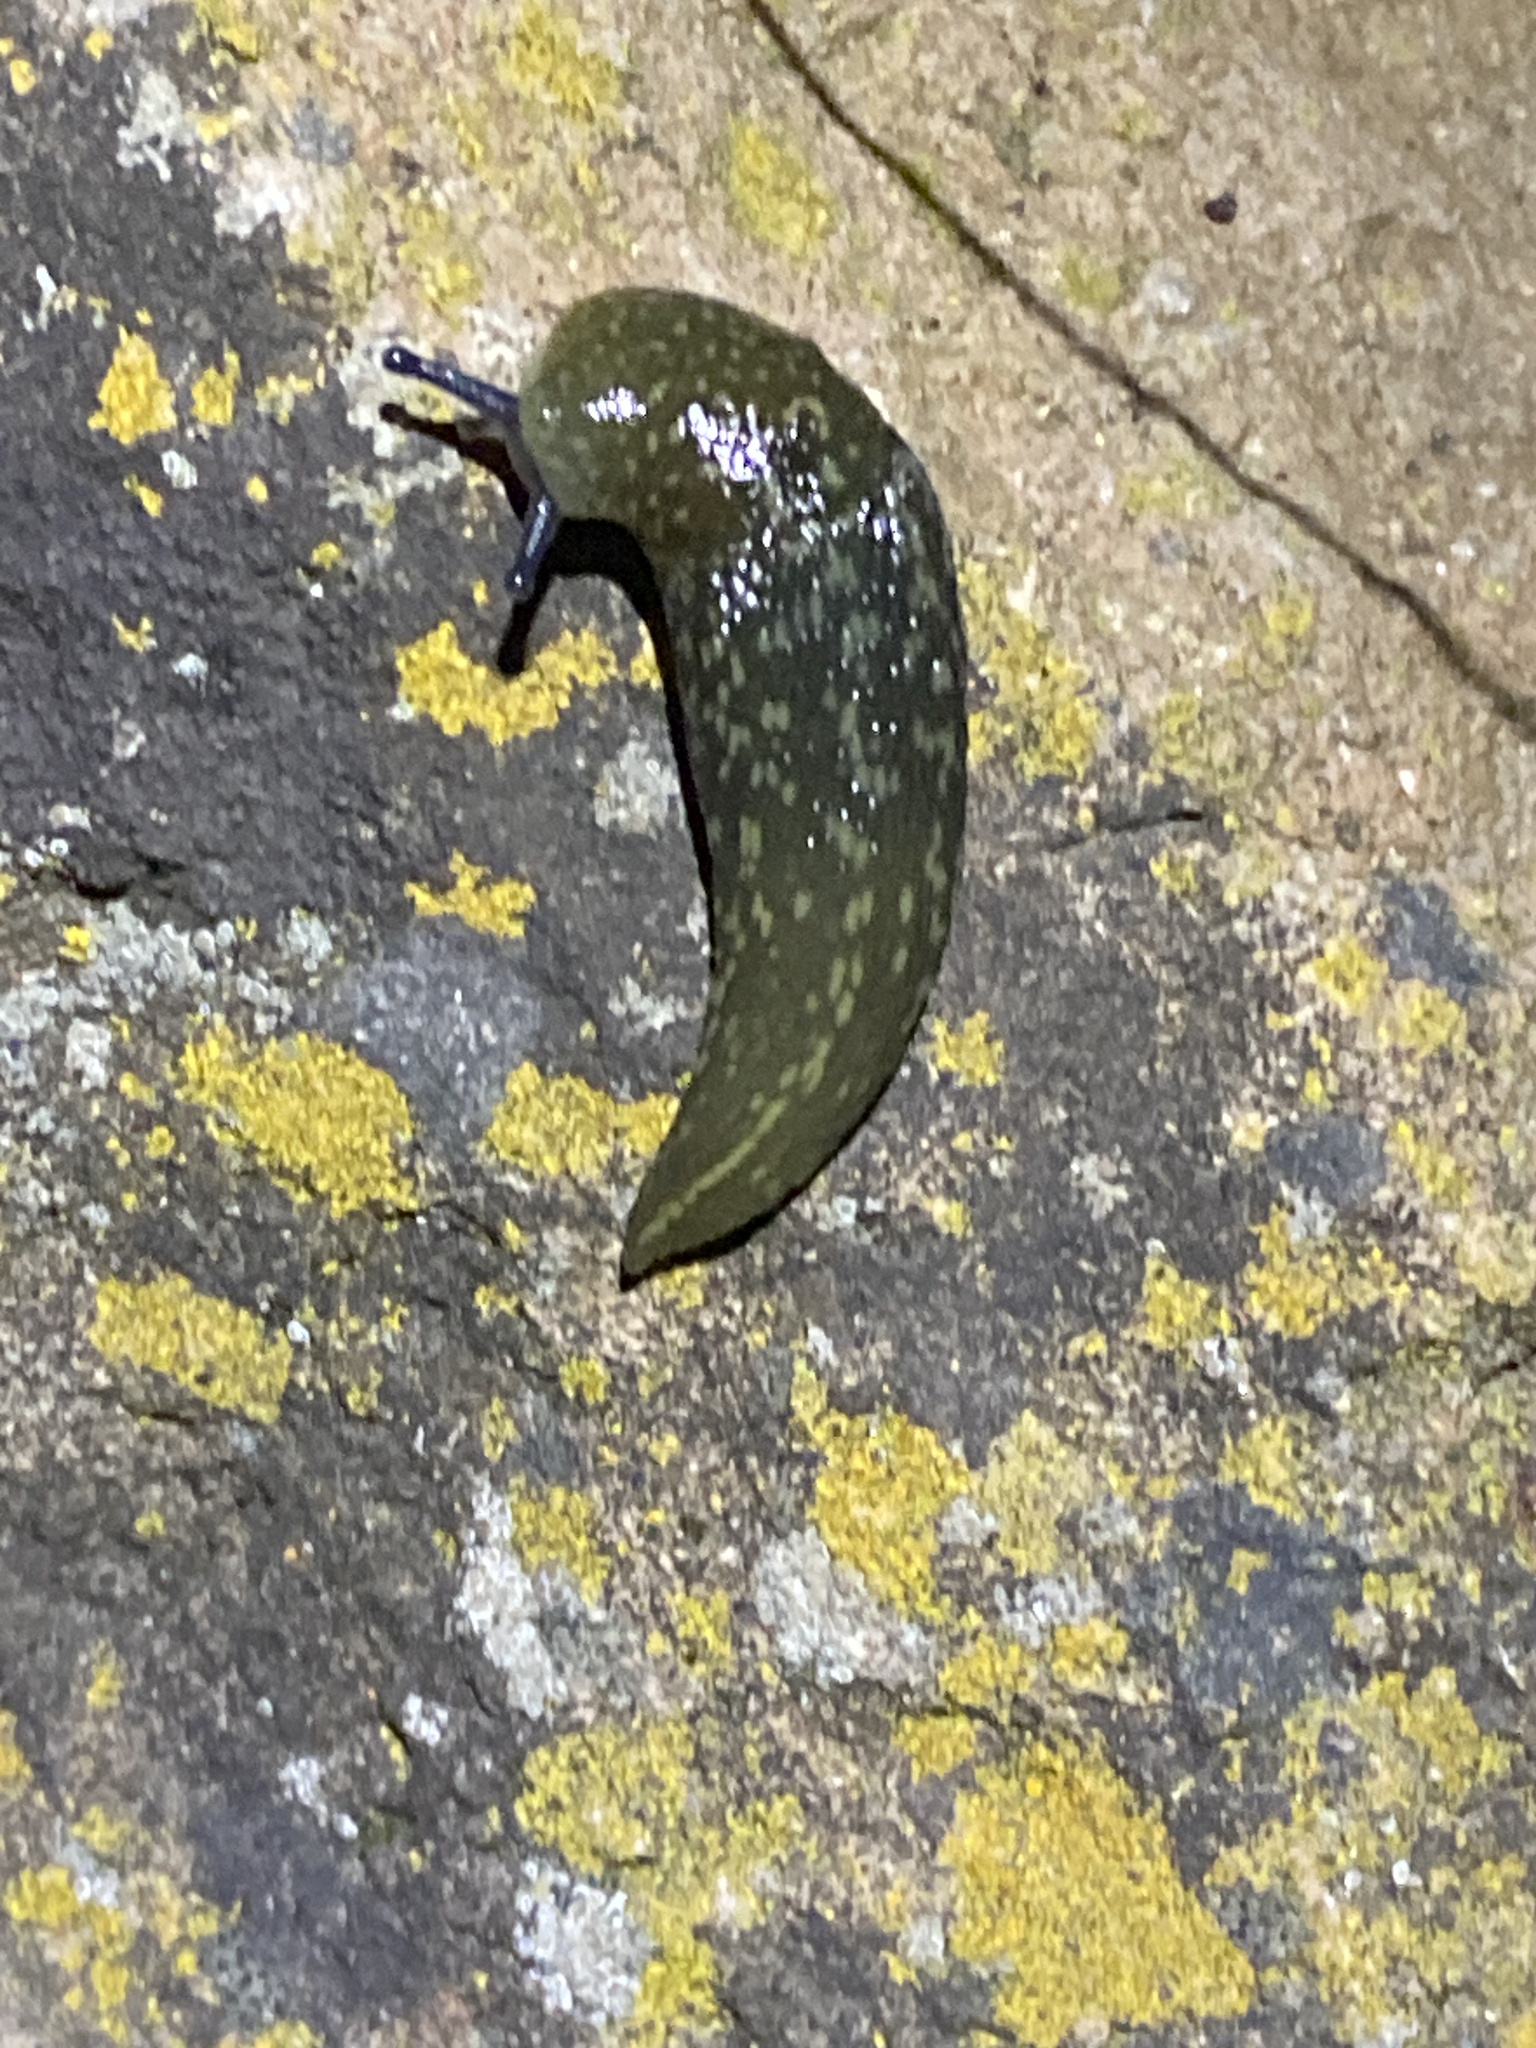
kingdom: Animalia
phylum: Mollusca
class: Gastropoda
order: Stylommatophora
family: Limacidae
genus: Limacus
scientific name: Limacus flavus
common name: Yellow gardenslug
